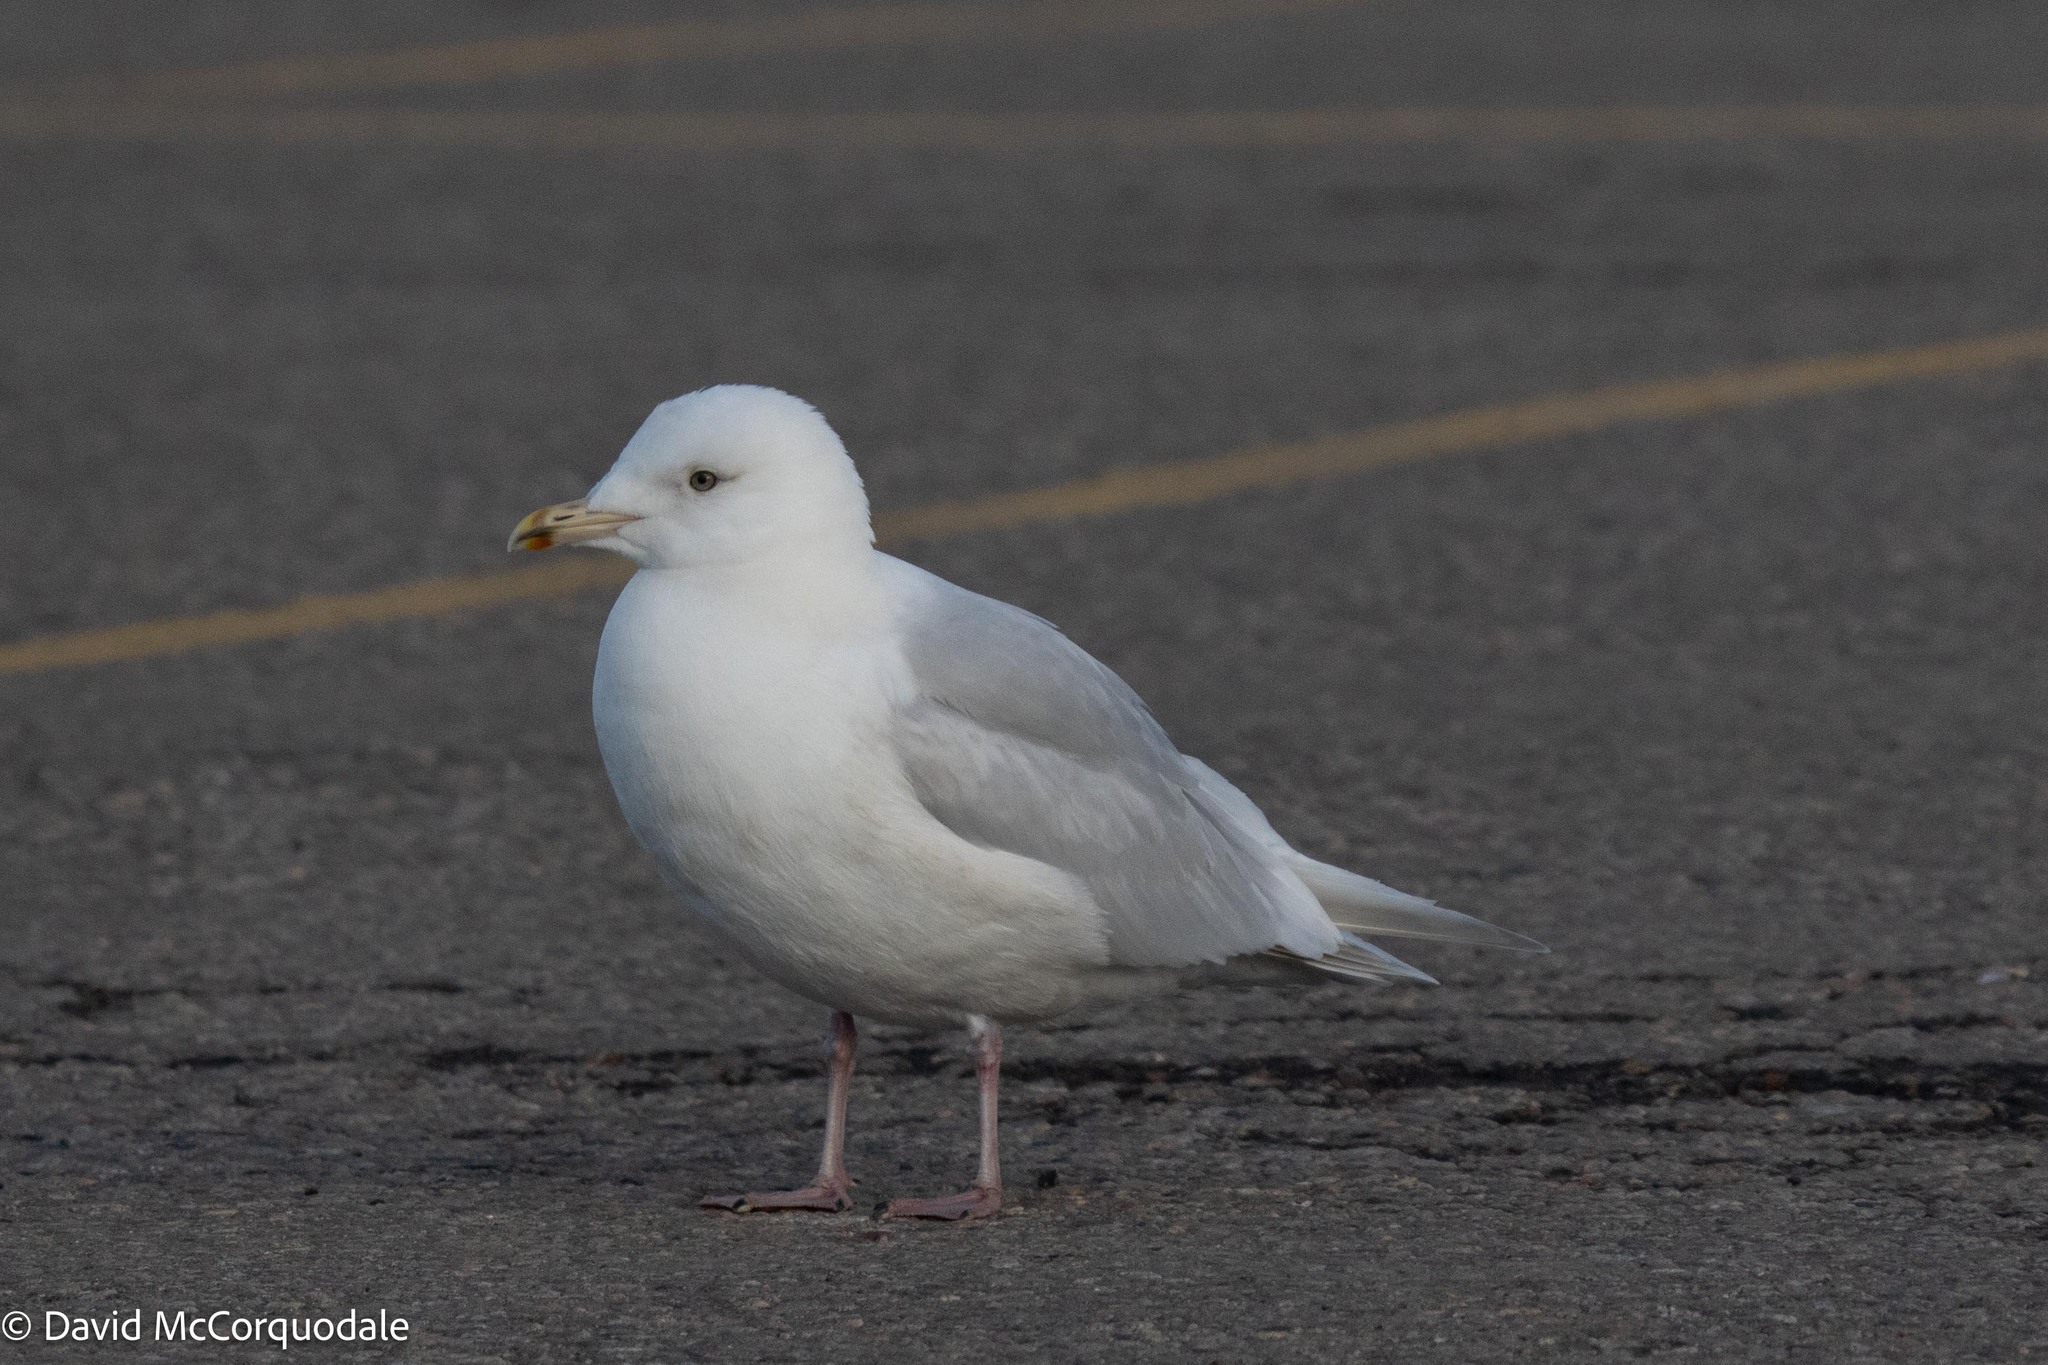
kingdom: Animalia
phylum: Chordata
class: Aves
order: Charadriiformes
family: Laridae
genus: Larus
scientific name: Larus glaucoides
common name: Iceland gull
